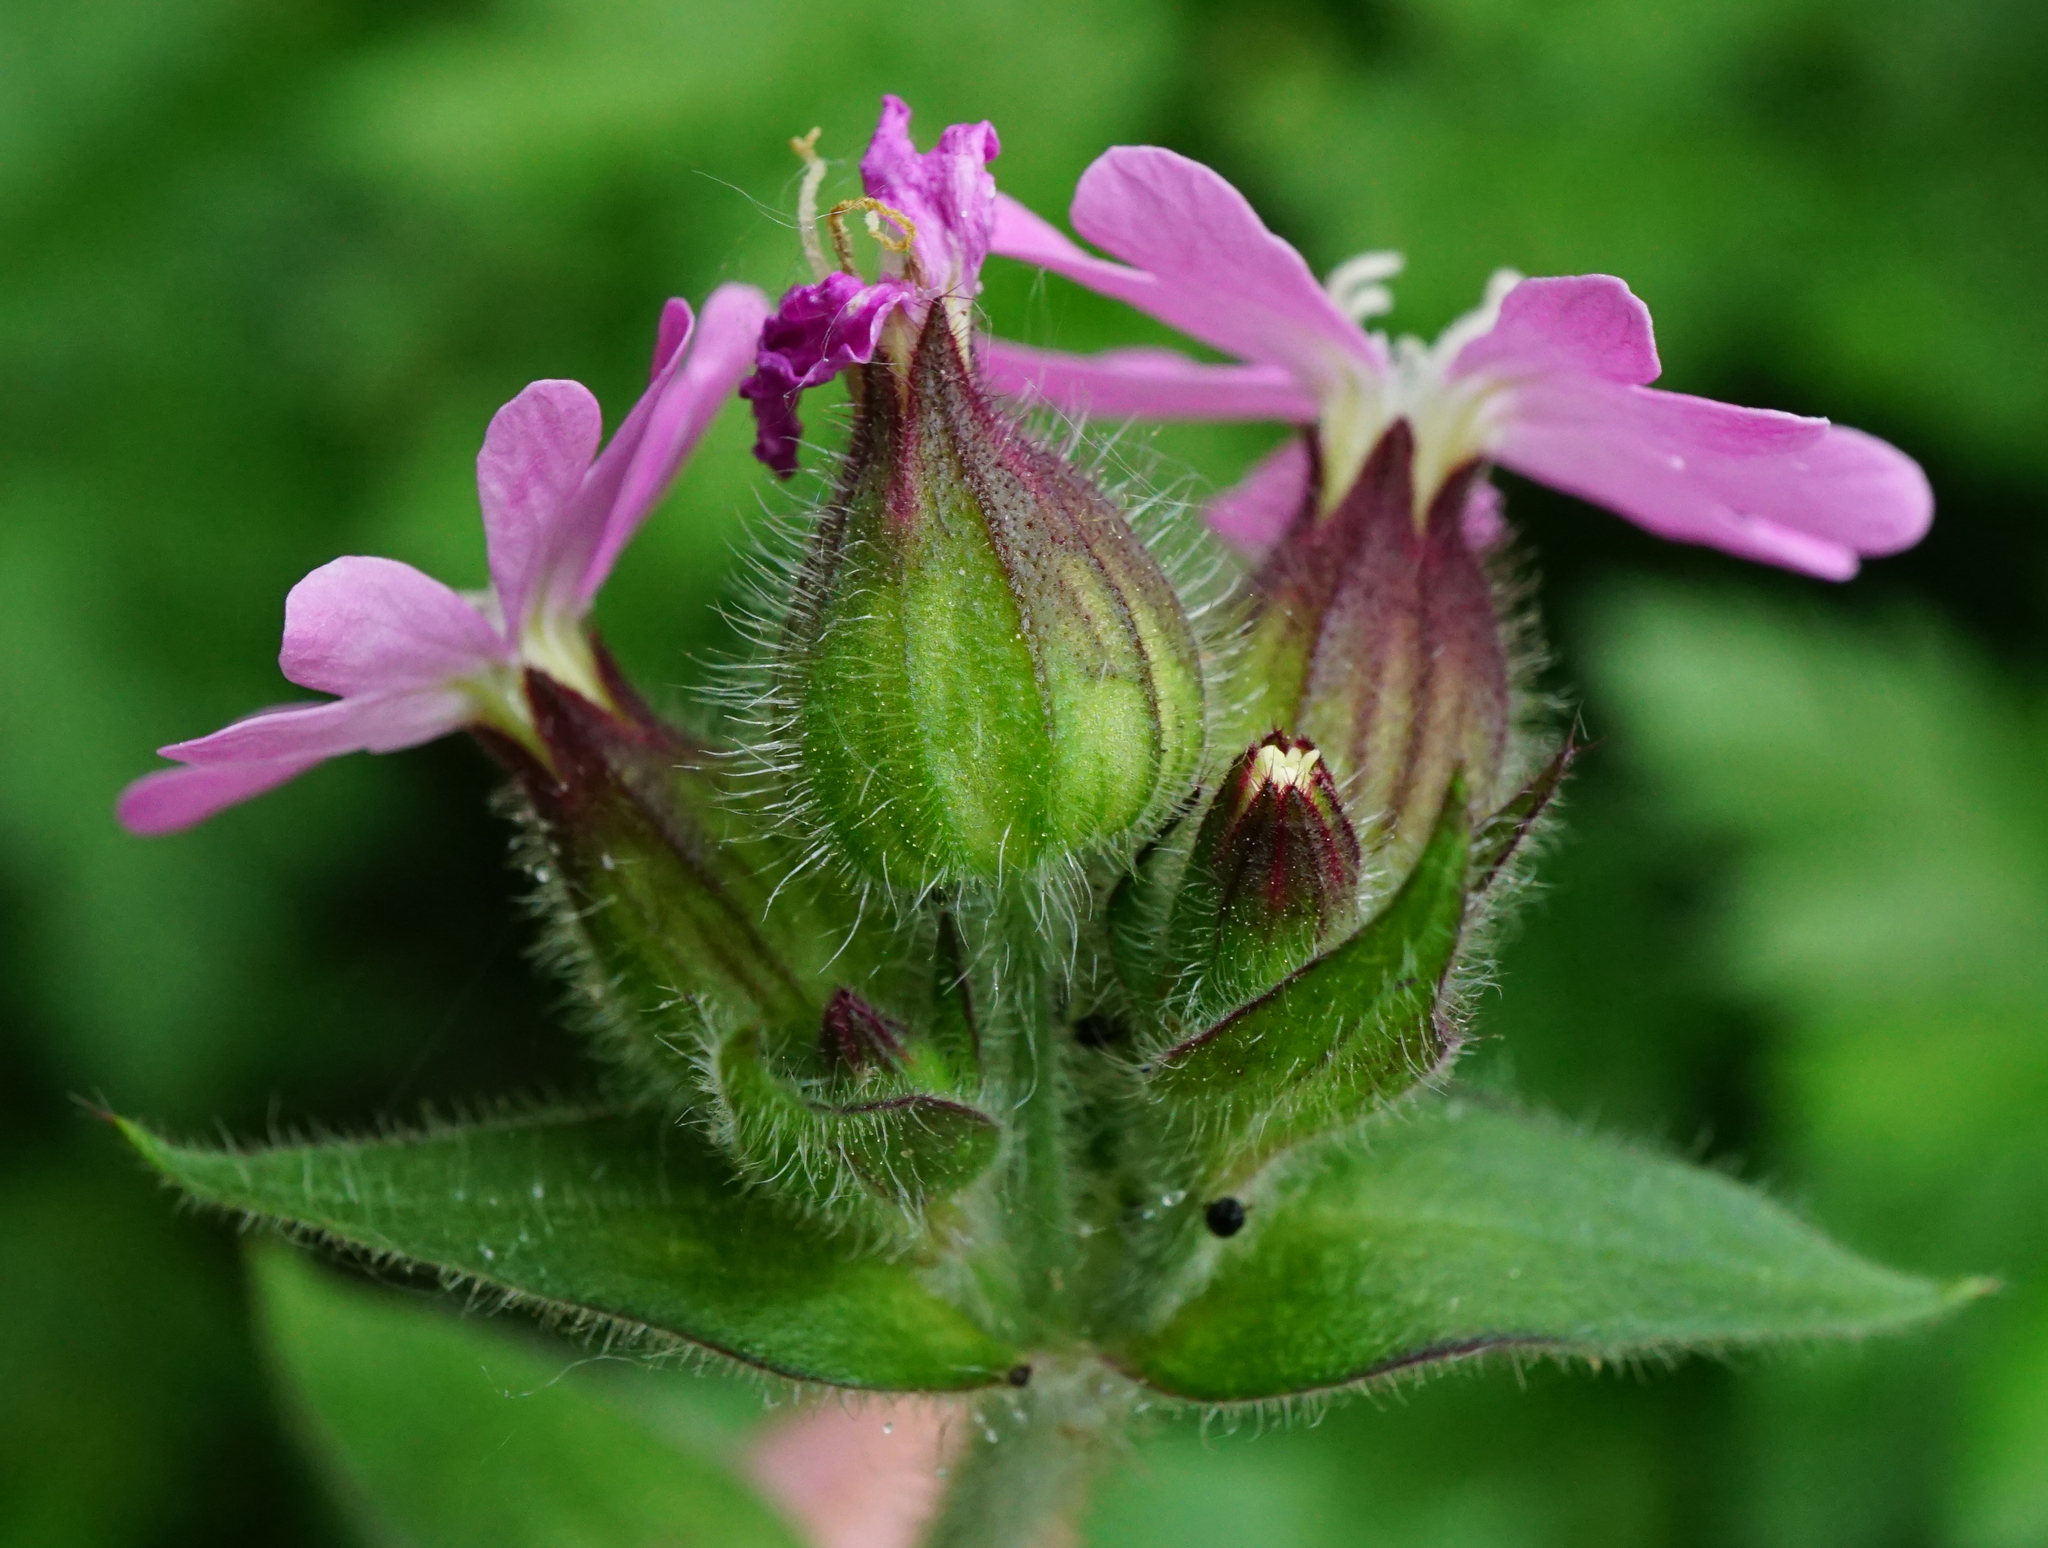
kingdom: Plantae
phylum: Tracheophyta
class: Magnoliopsida
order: Caryophyllales
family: Caryophyllaceae
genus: Silene
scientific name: Silene dioica
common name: Red campion
